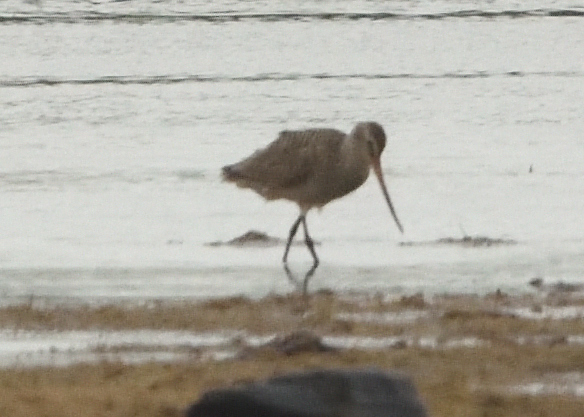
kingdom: Animalia
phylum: Chordata
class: Aves
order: Charadriiformes
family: Scolopacidae
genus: Limosa
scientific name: Limosa fedoa
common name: Marbled godwit
